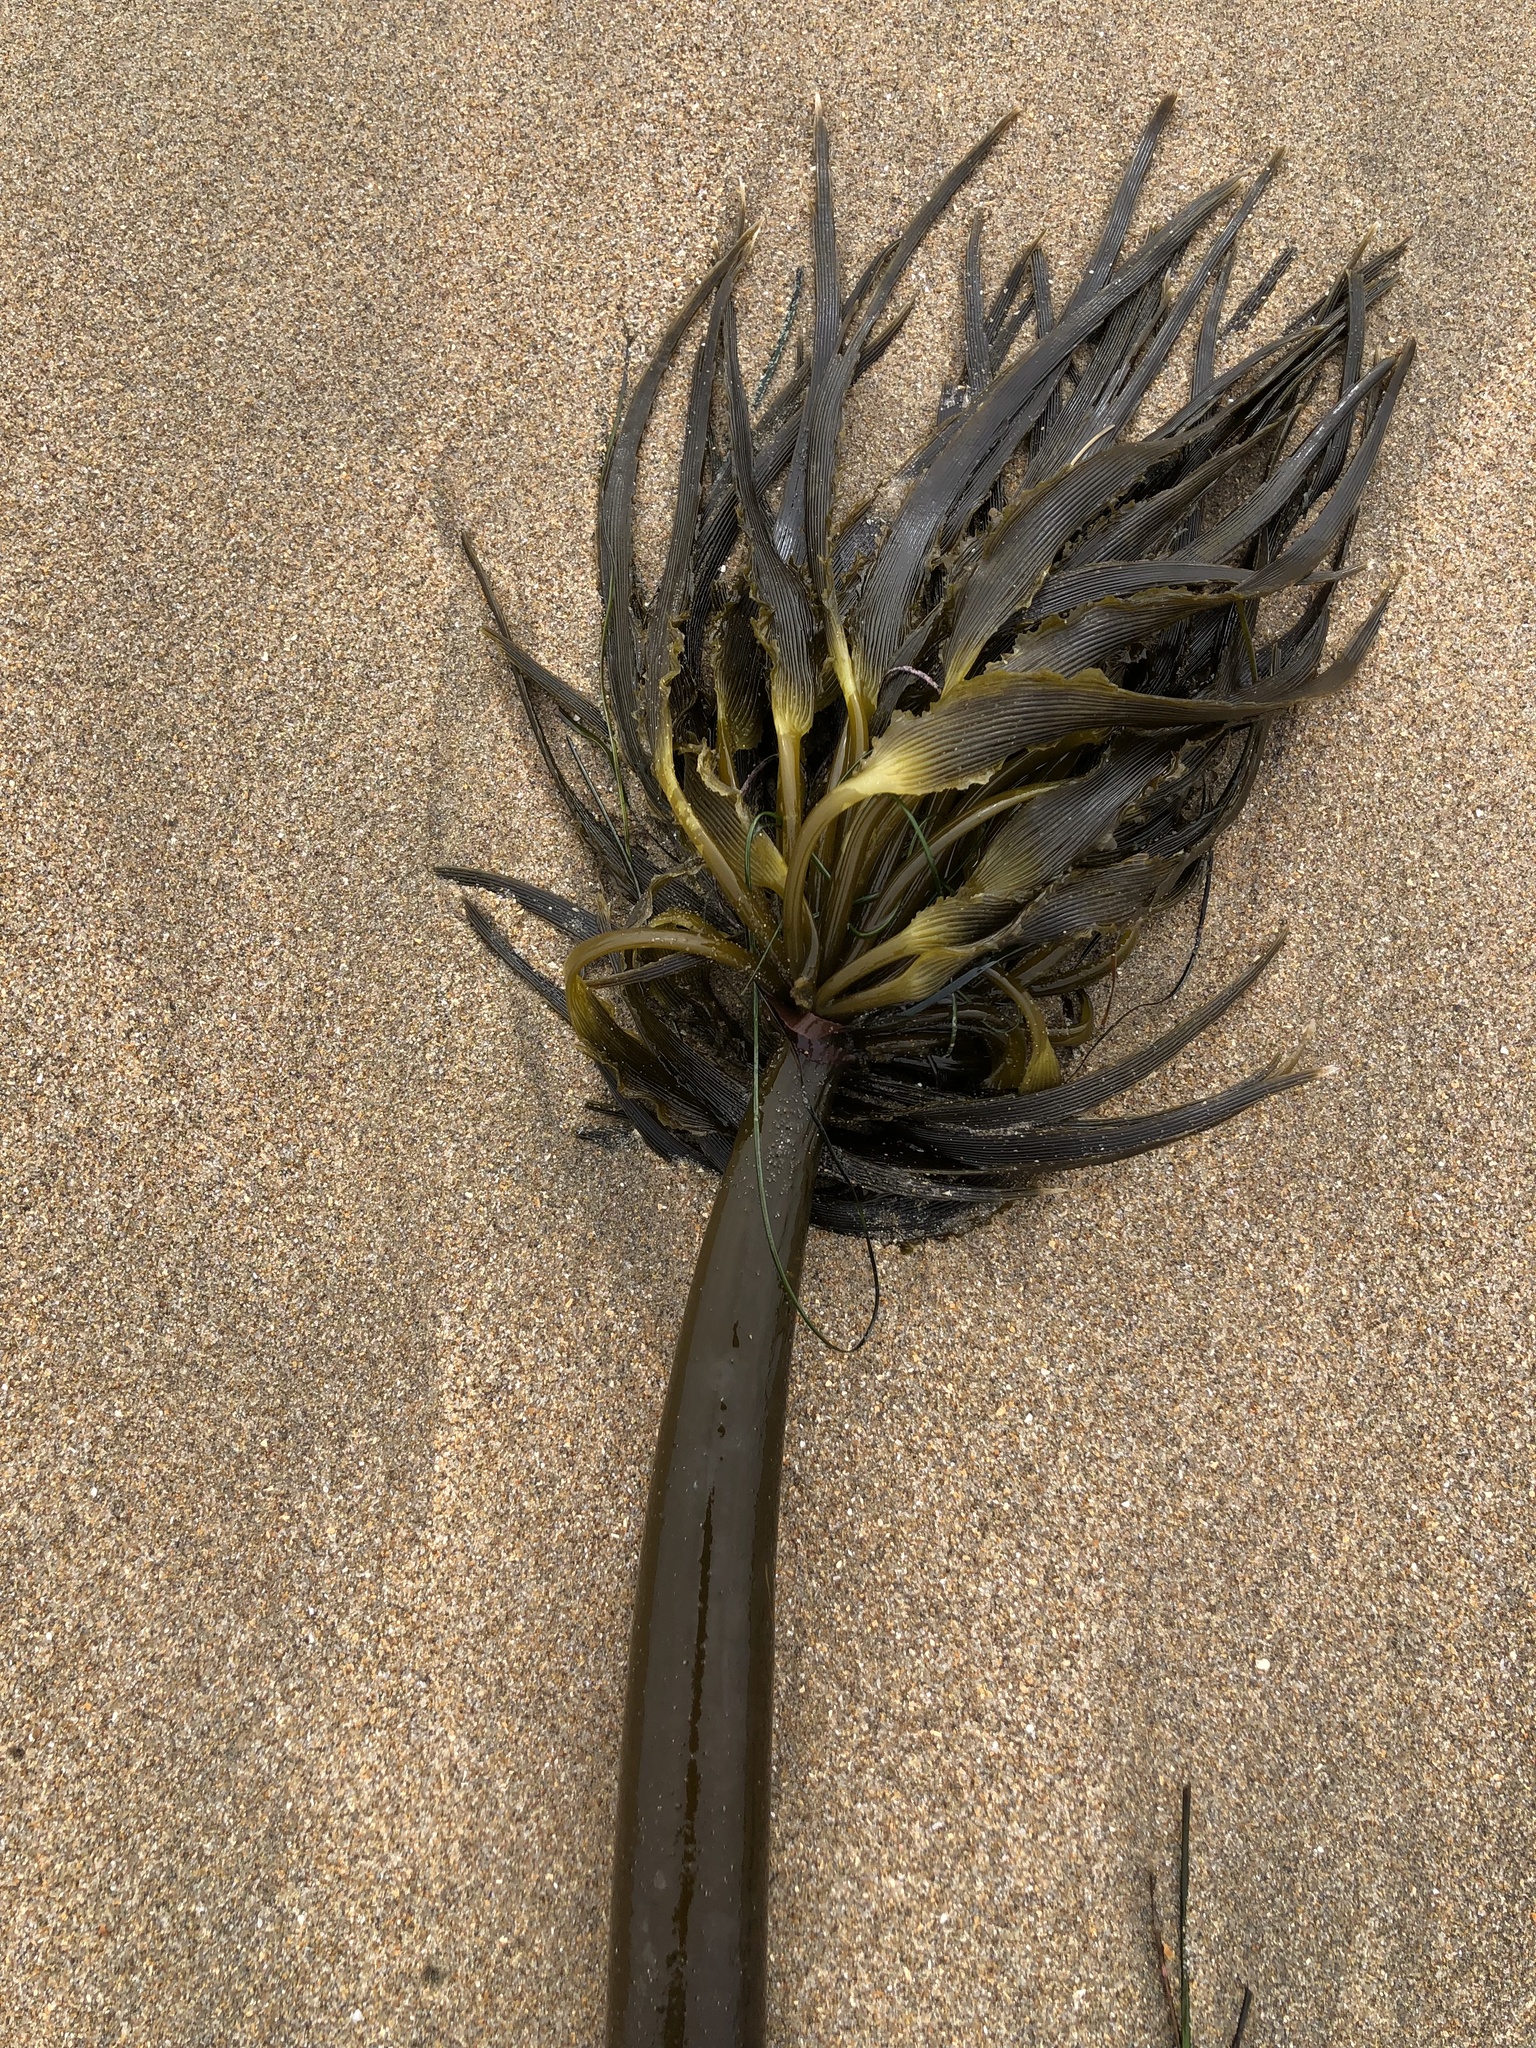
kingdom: Chromista
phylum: Ochrophyta
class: Phaeophyceae
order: Laminariales
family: Laminariaceae
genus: Postelsia
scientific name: Postelsia palmiformis
